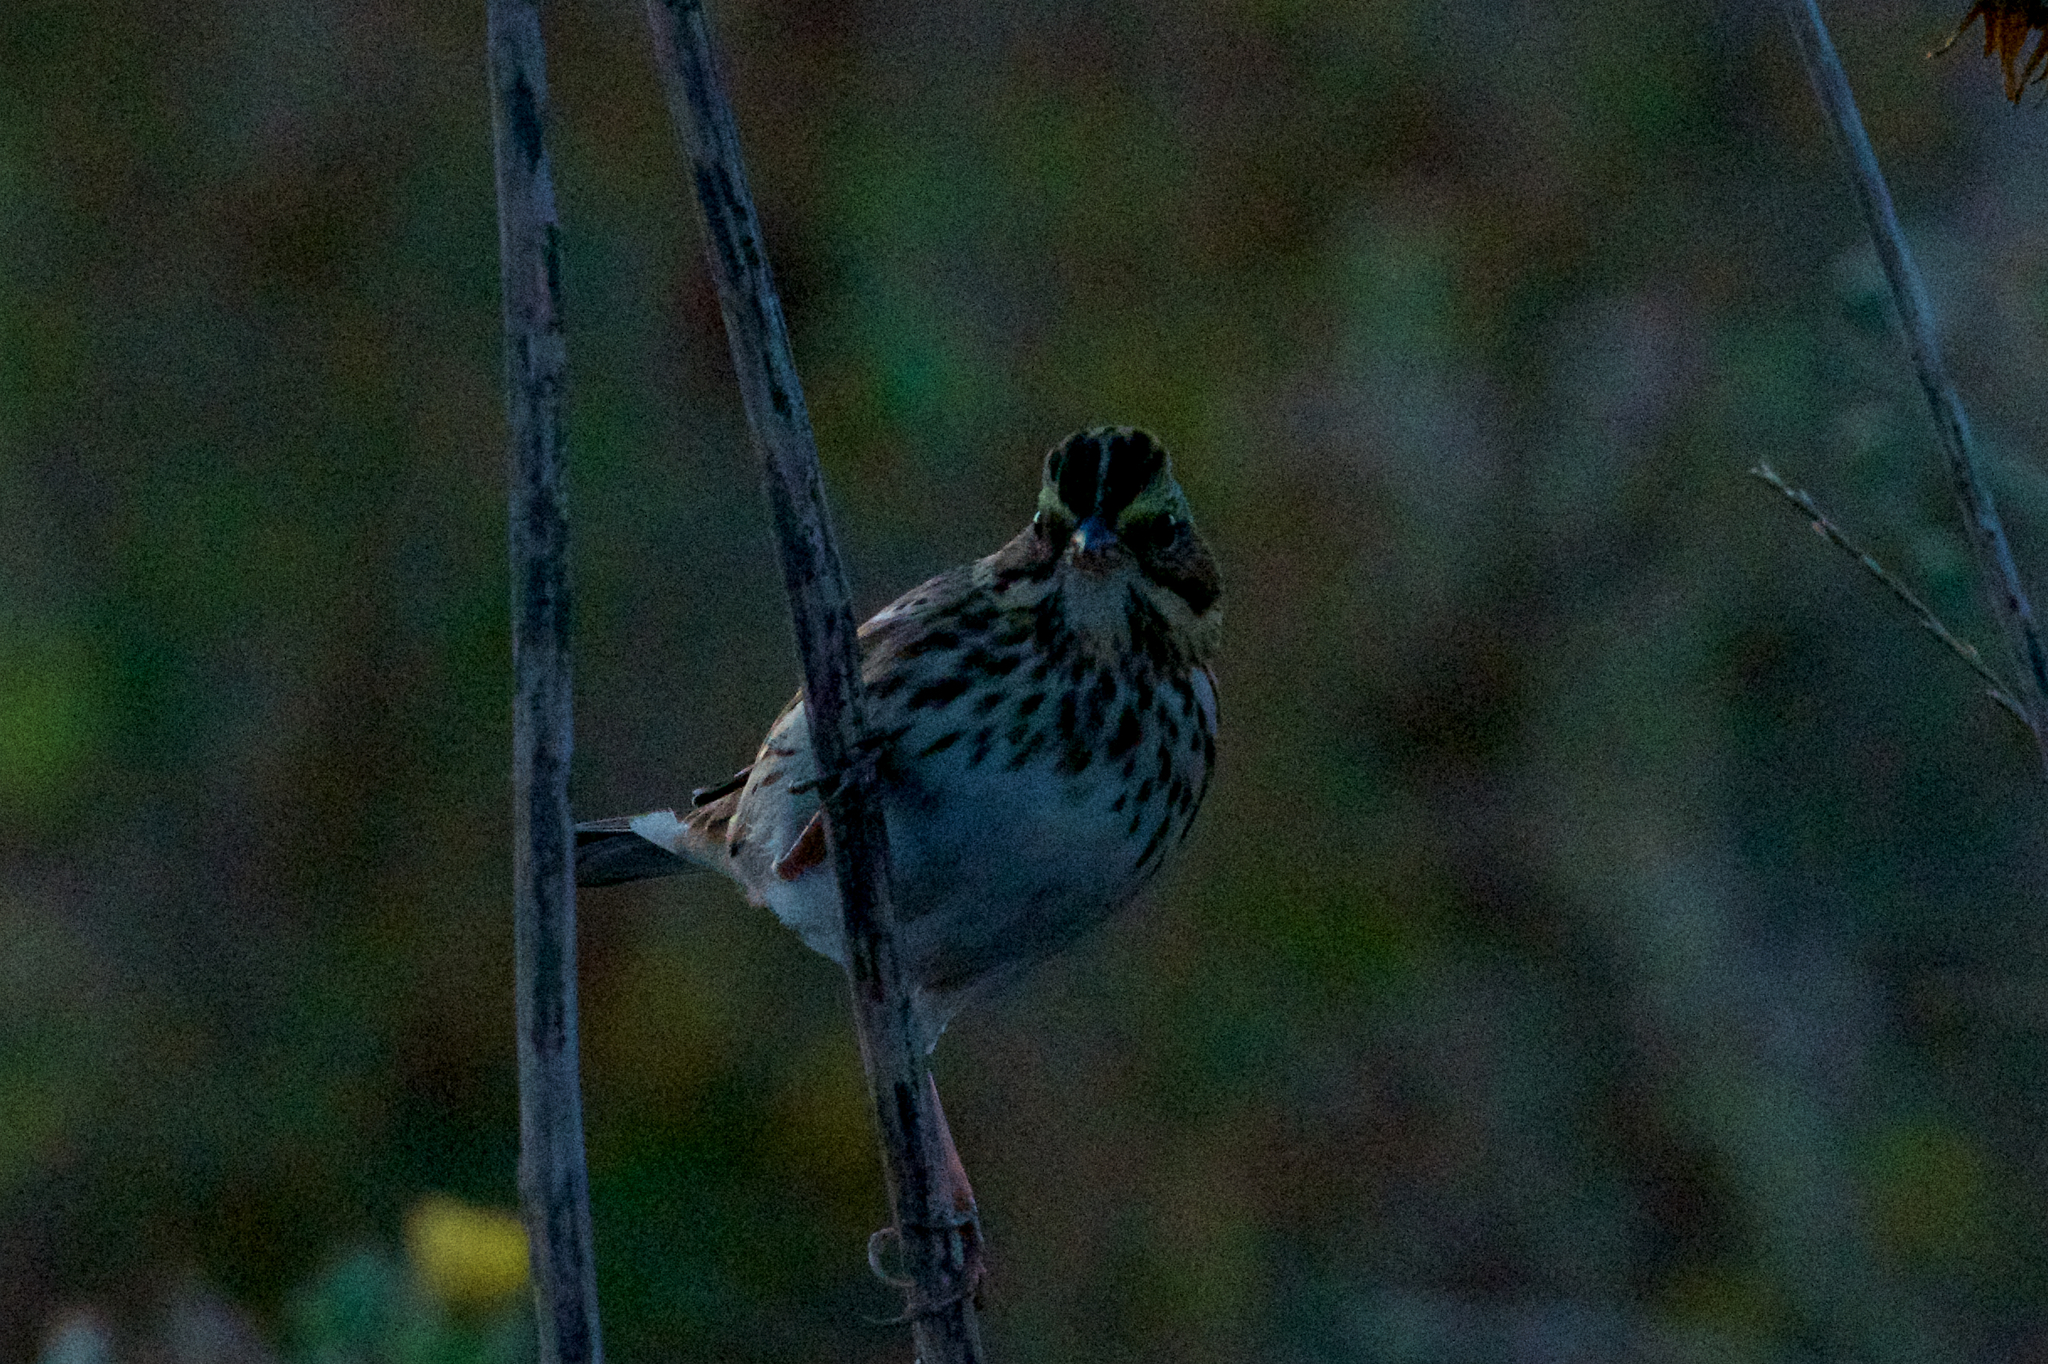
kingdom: Animalia
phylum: Chordata
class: Aves
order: Passeriformes
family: Passerellidae
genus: Passerculus
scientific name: Passerculus sandwichensis
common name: Savannah sparrow
